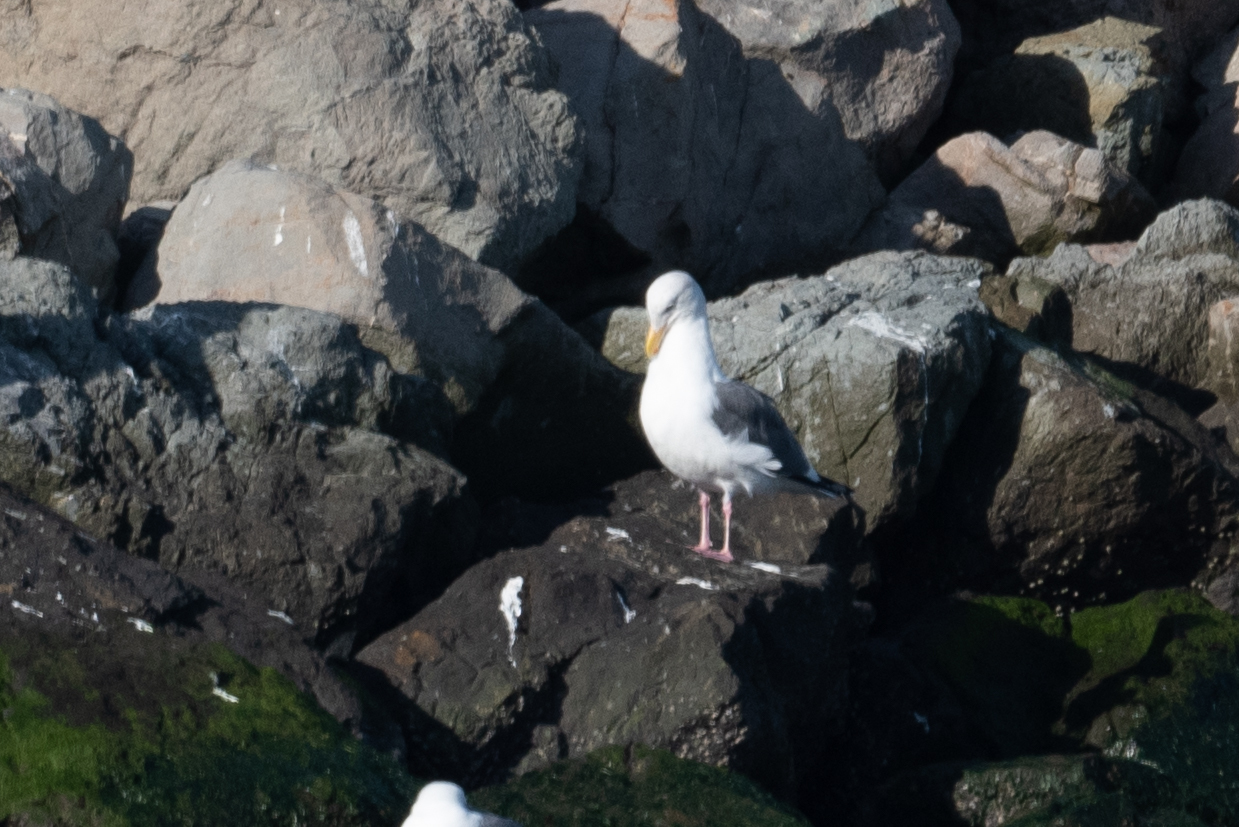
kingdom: Animalia
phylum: Chordata
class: Aves
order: Charadriiformes
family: Laridae
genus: Larus
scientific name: Larus occidentalis
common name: Western gull
